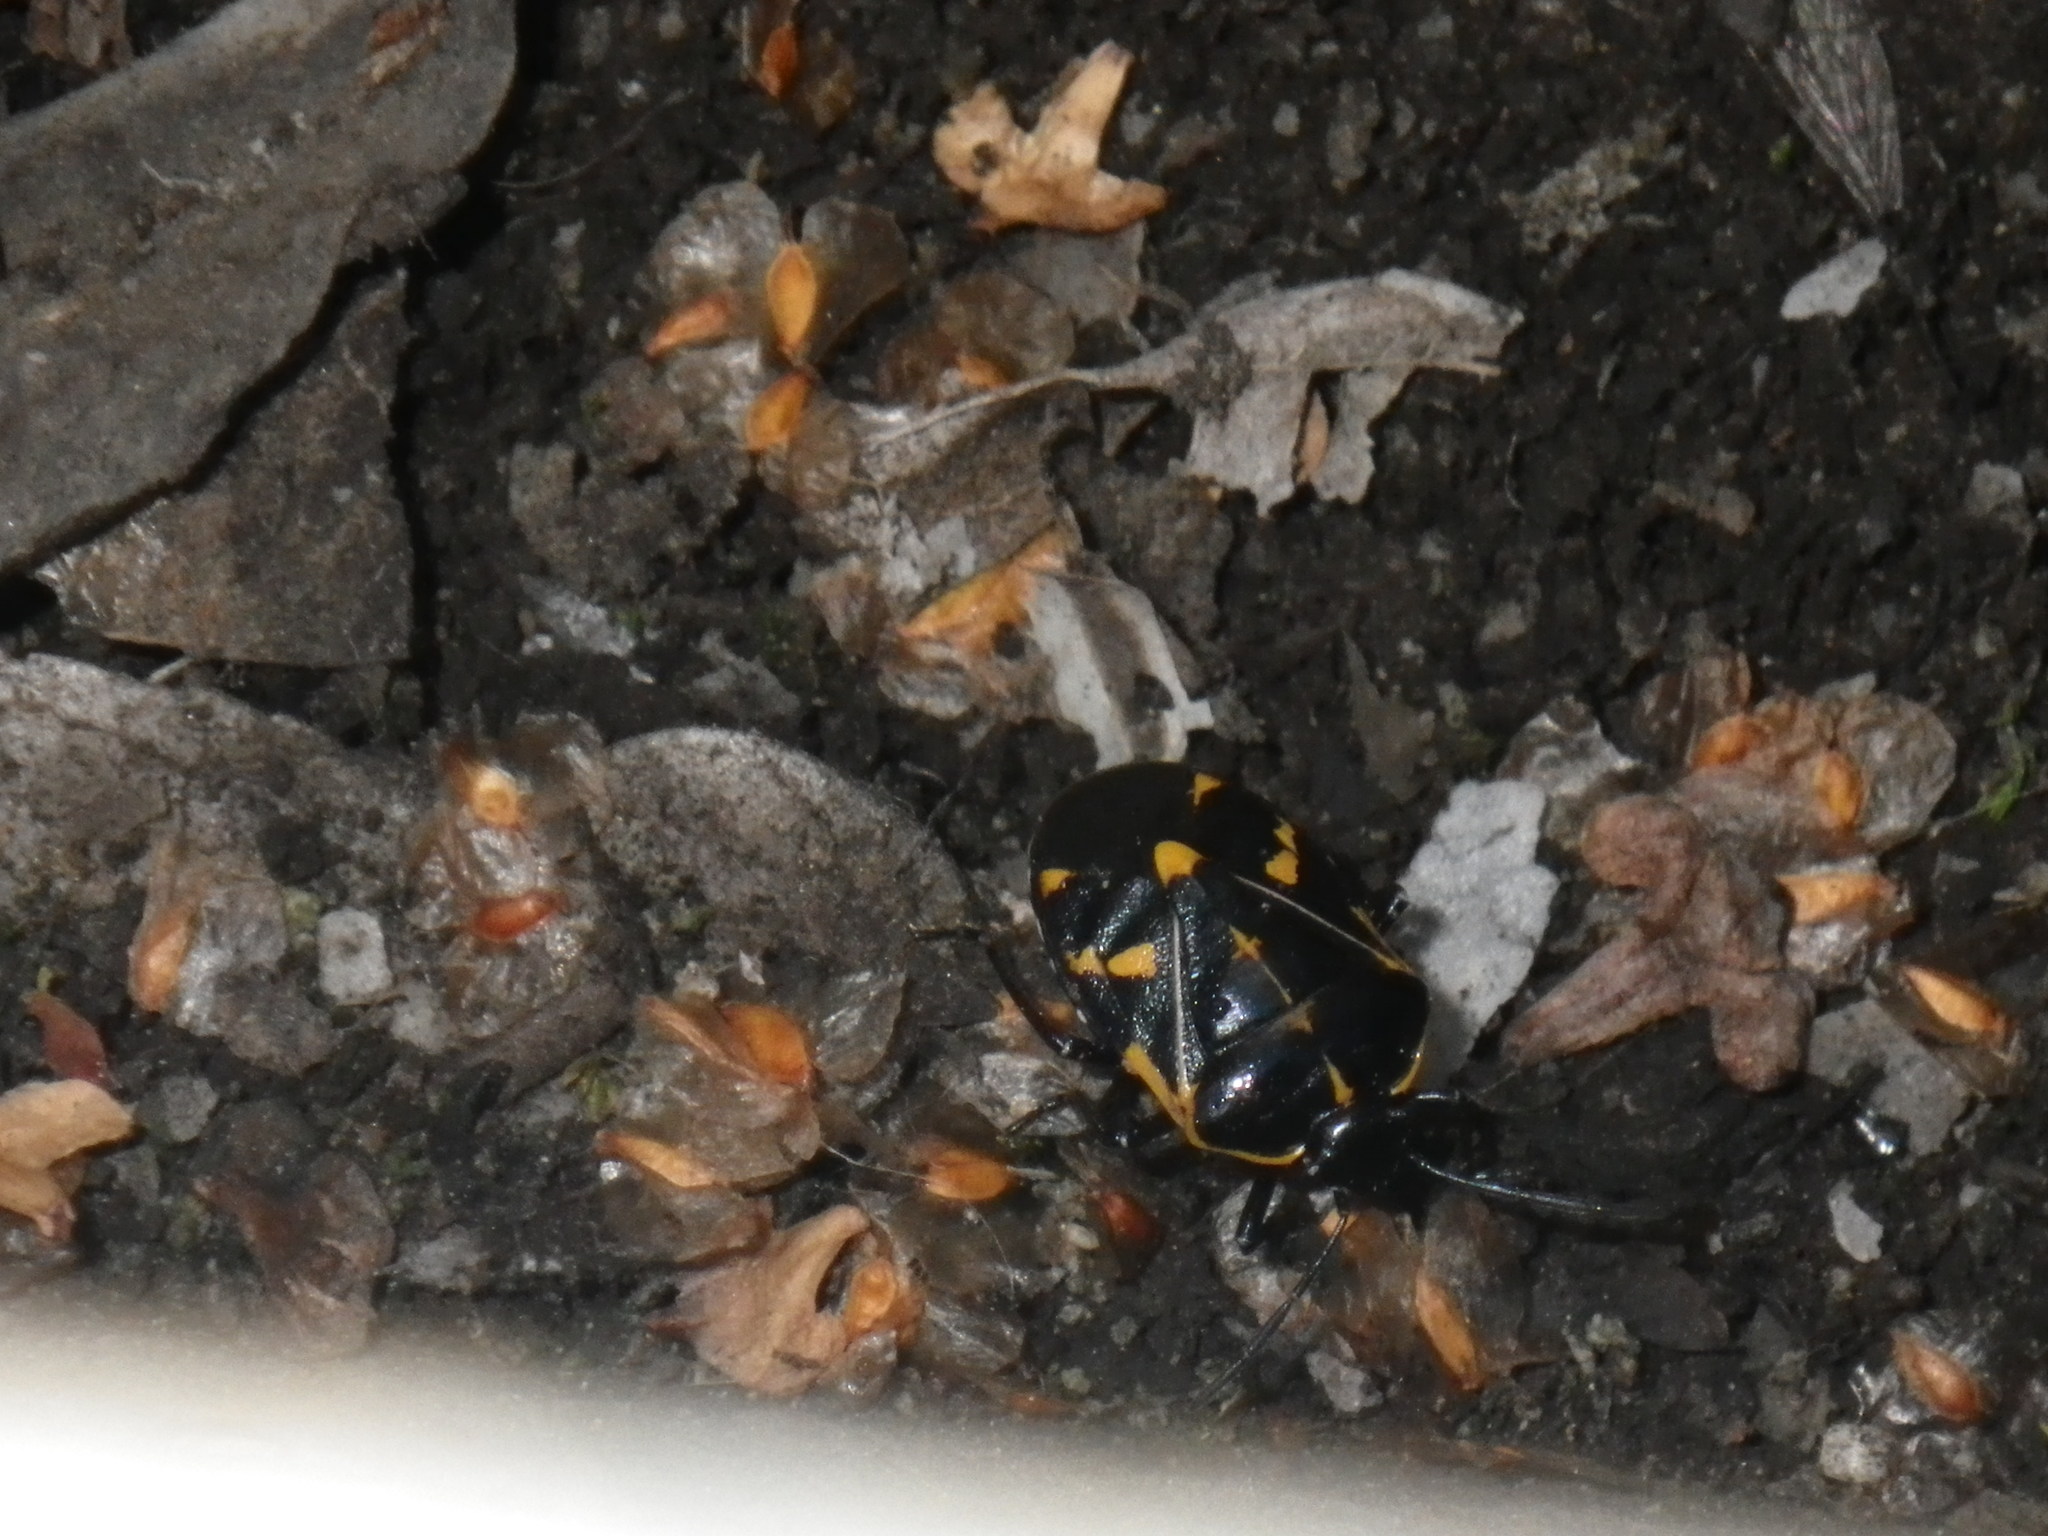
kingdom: Animalia
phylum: Arthropoda
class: Insecta
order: Hemiptera
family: Pentatomidae
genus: Murgantia
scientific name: Murgantia histrionica
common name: Harlequin bug
